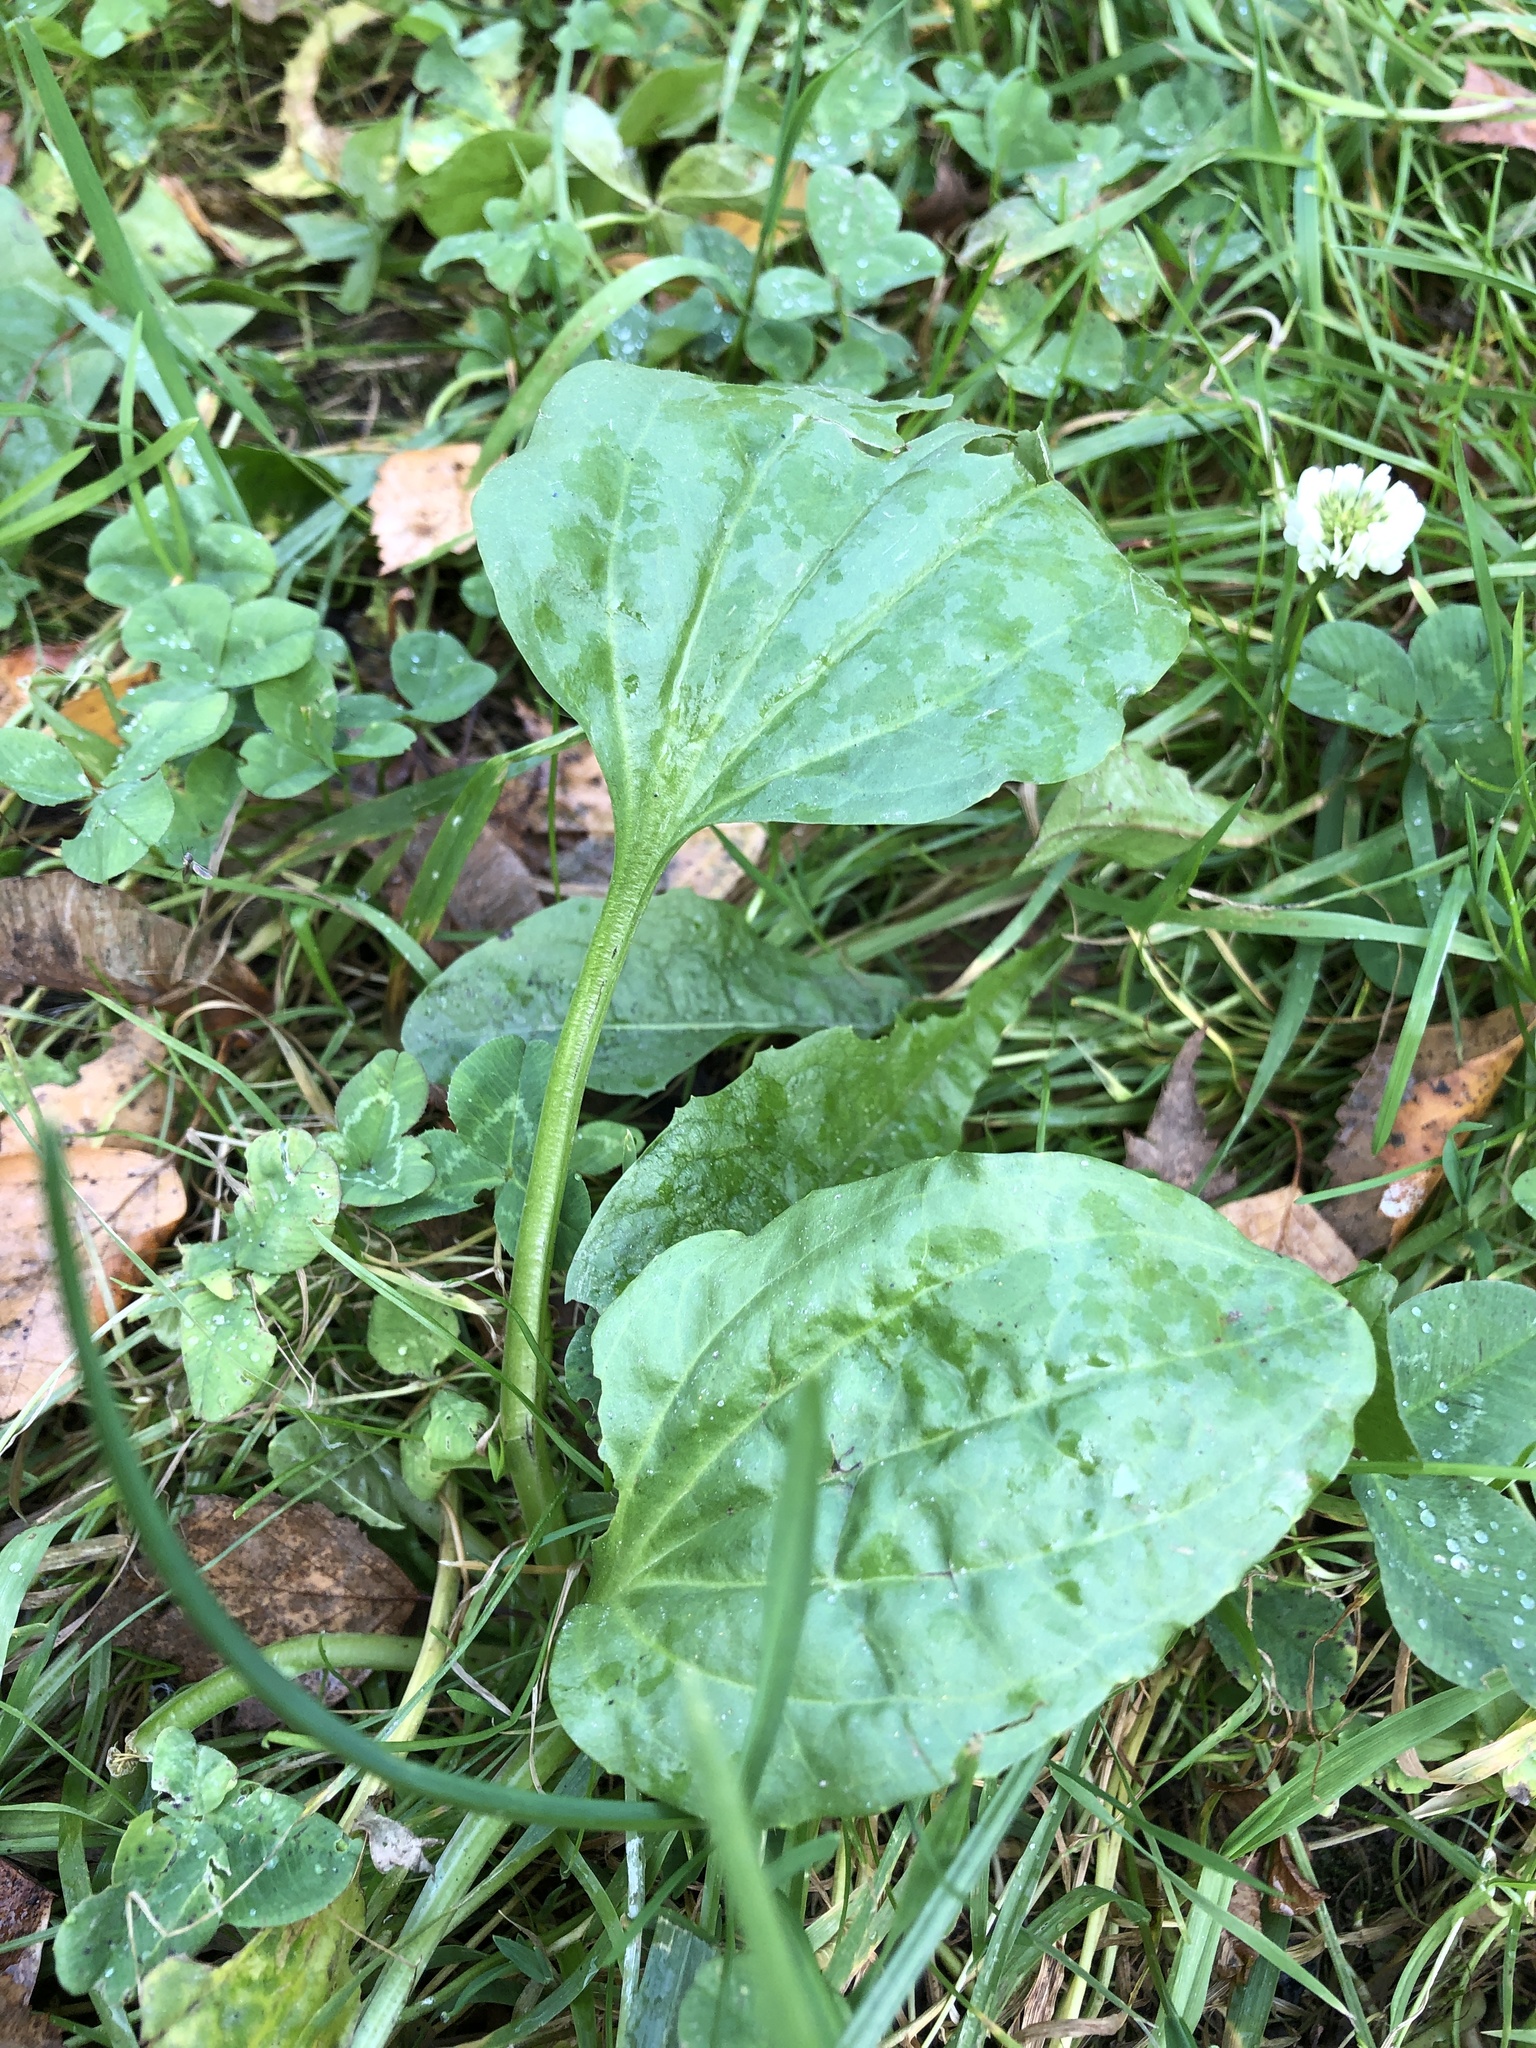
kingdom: Plantae
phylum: Tracheophyta
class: Magnoliopsida
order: Lamiales
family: Plantaginaceae
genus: Plantago
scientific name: Plantago major
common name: Common plantain
